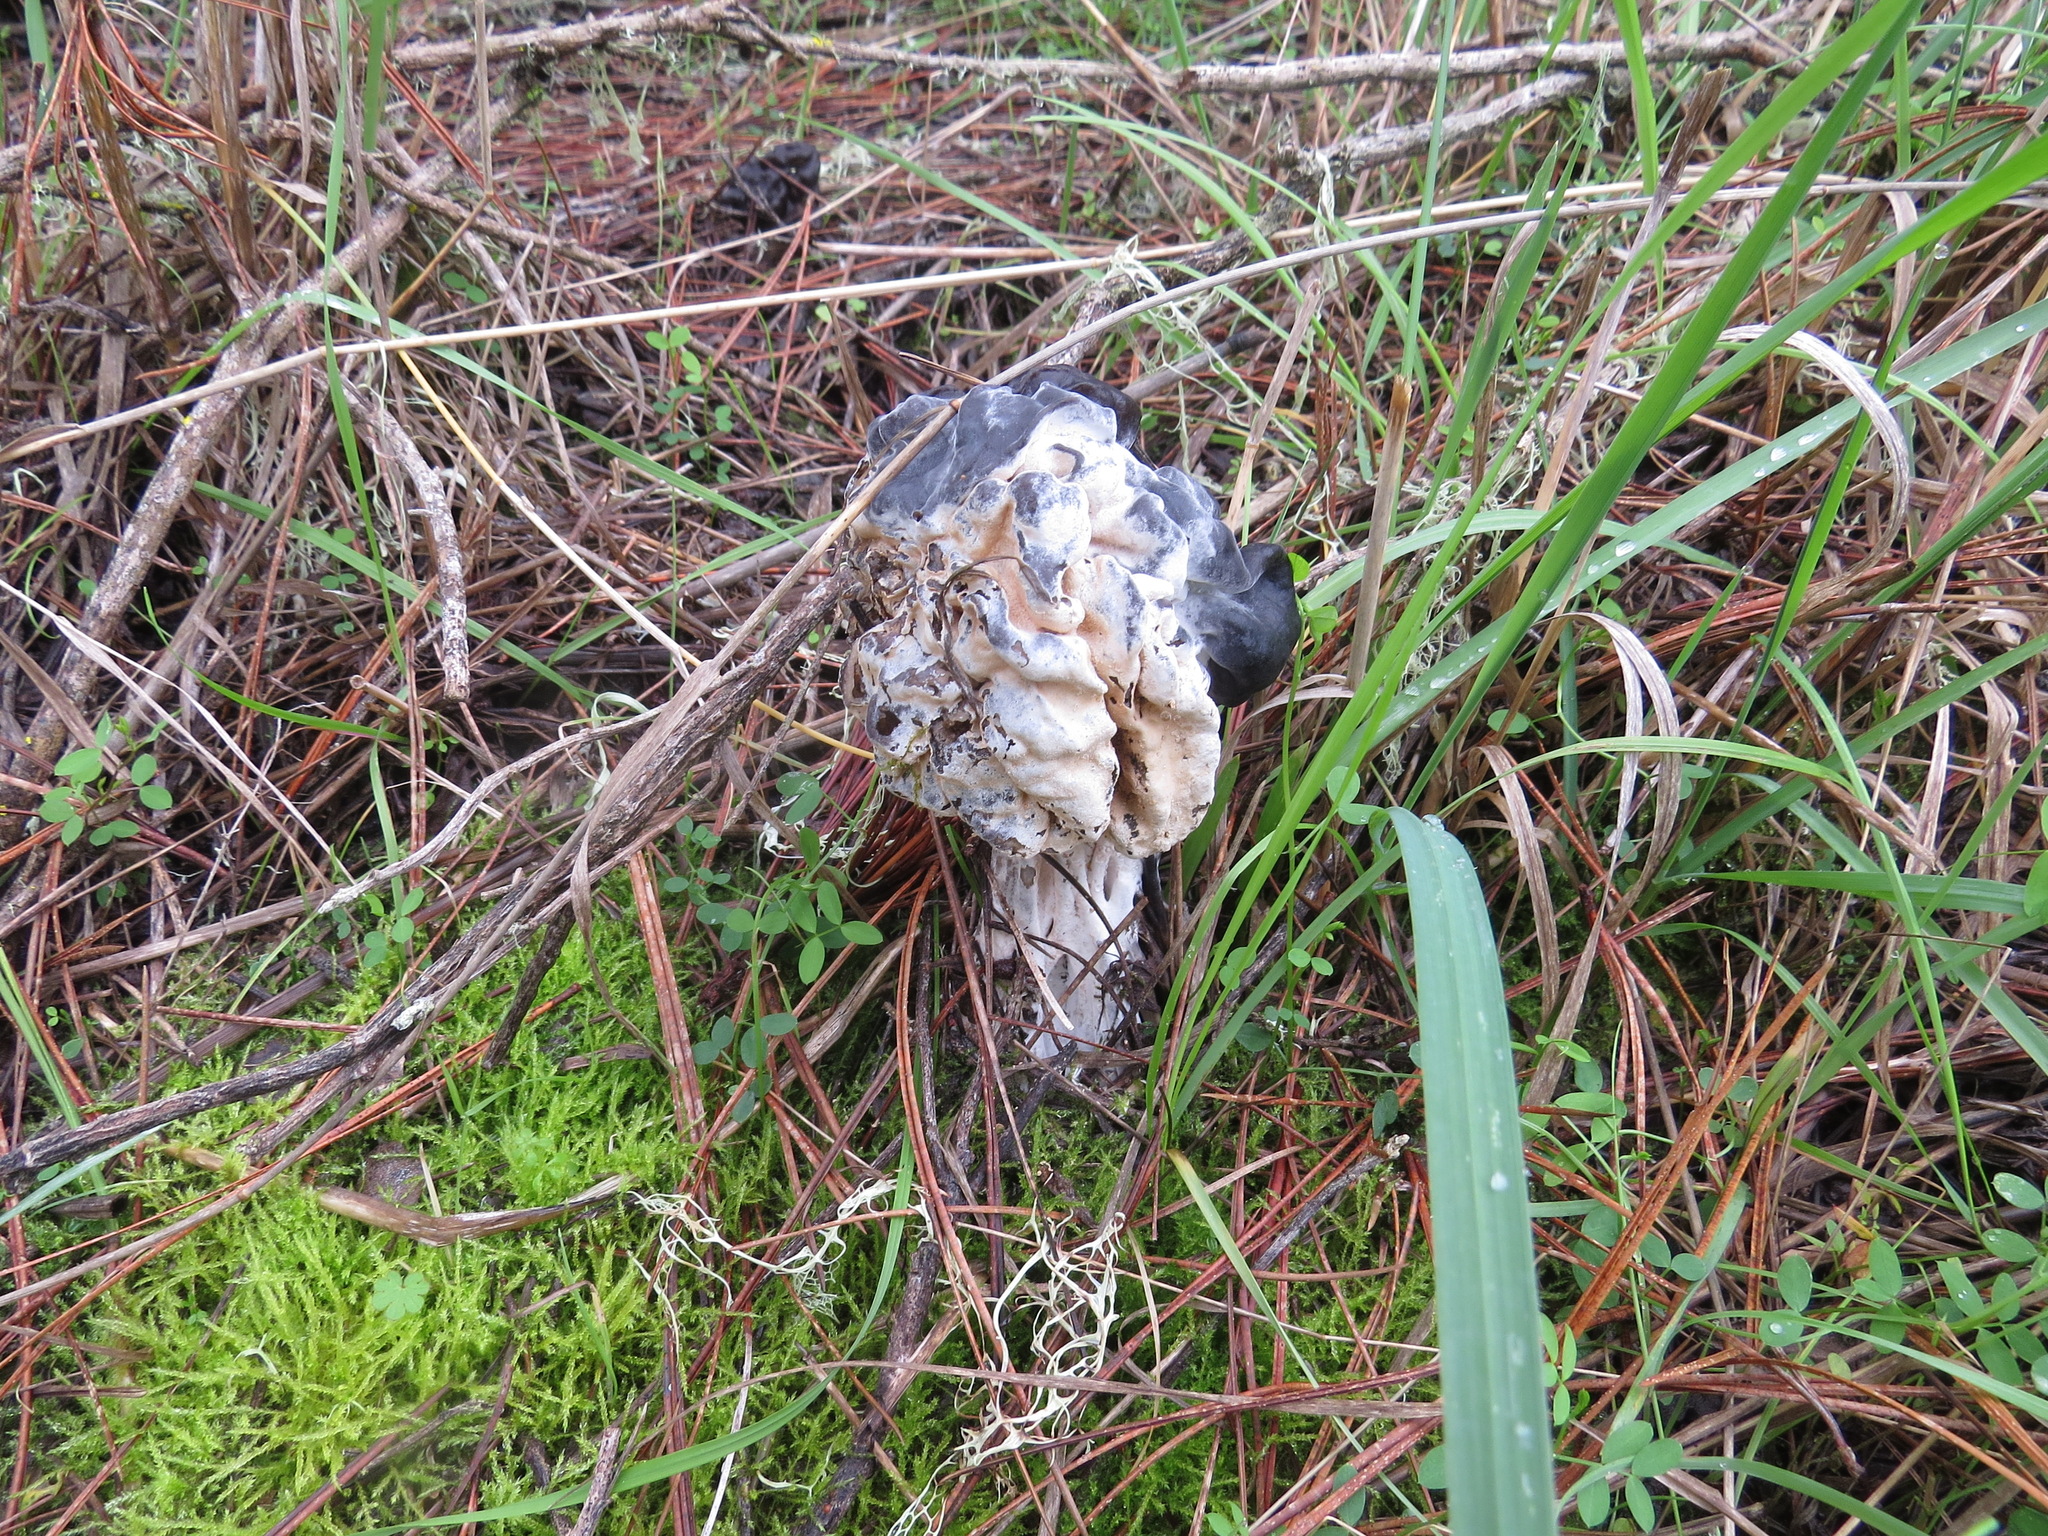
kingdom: Fungi
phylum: Ascomycota
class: Sordariomycetes
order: Hypocreales
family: Hypocreaceae
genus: Hypomyces
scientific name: Hypomyces cervinus
